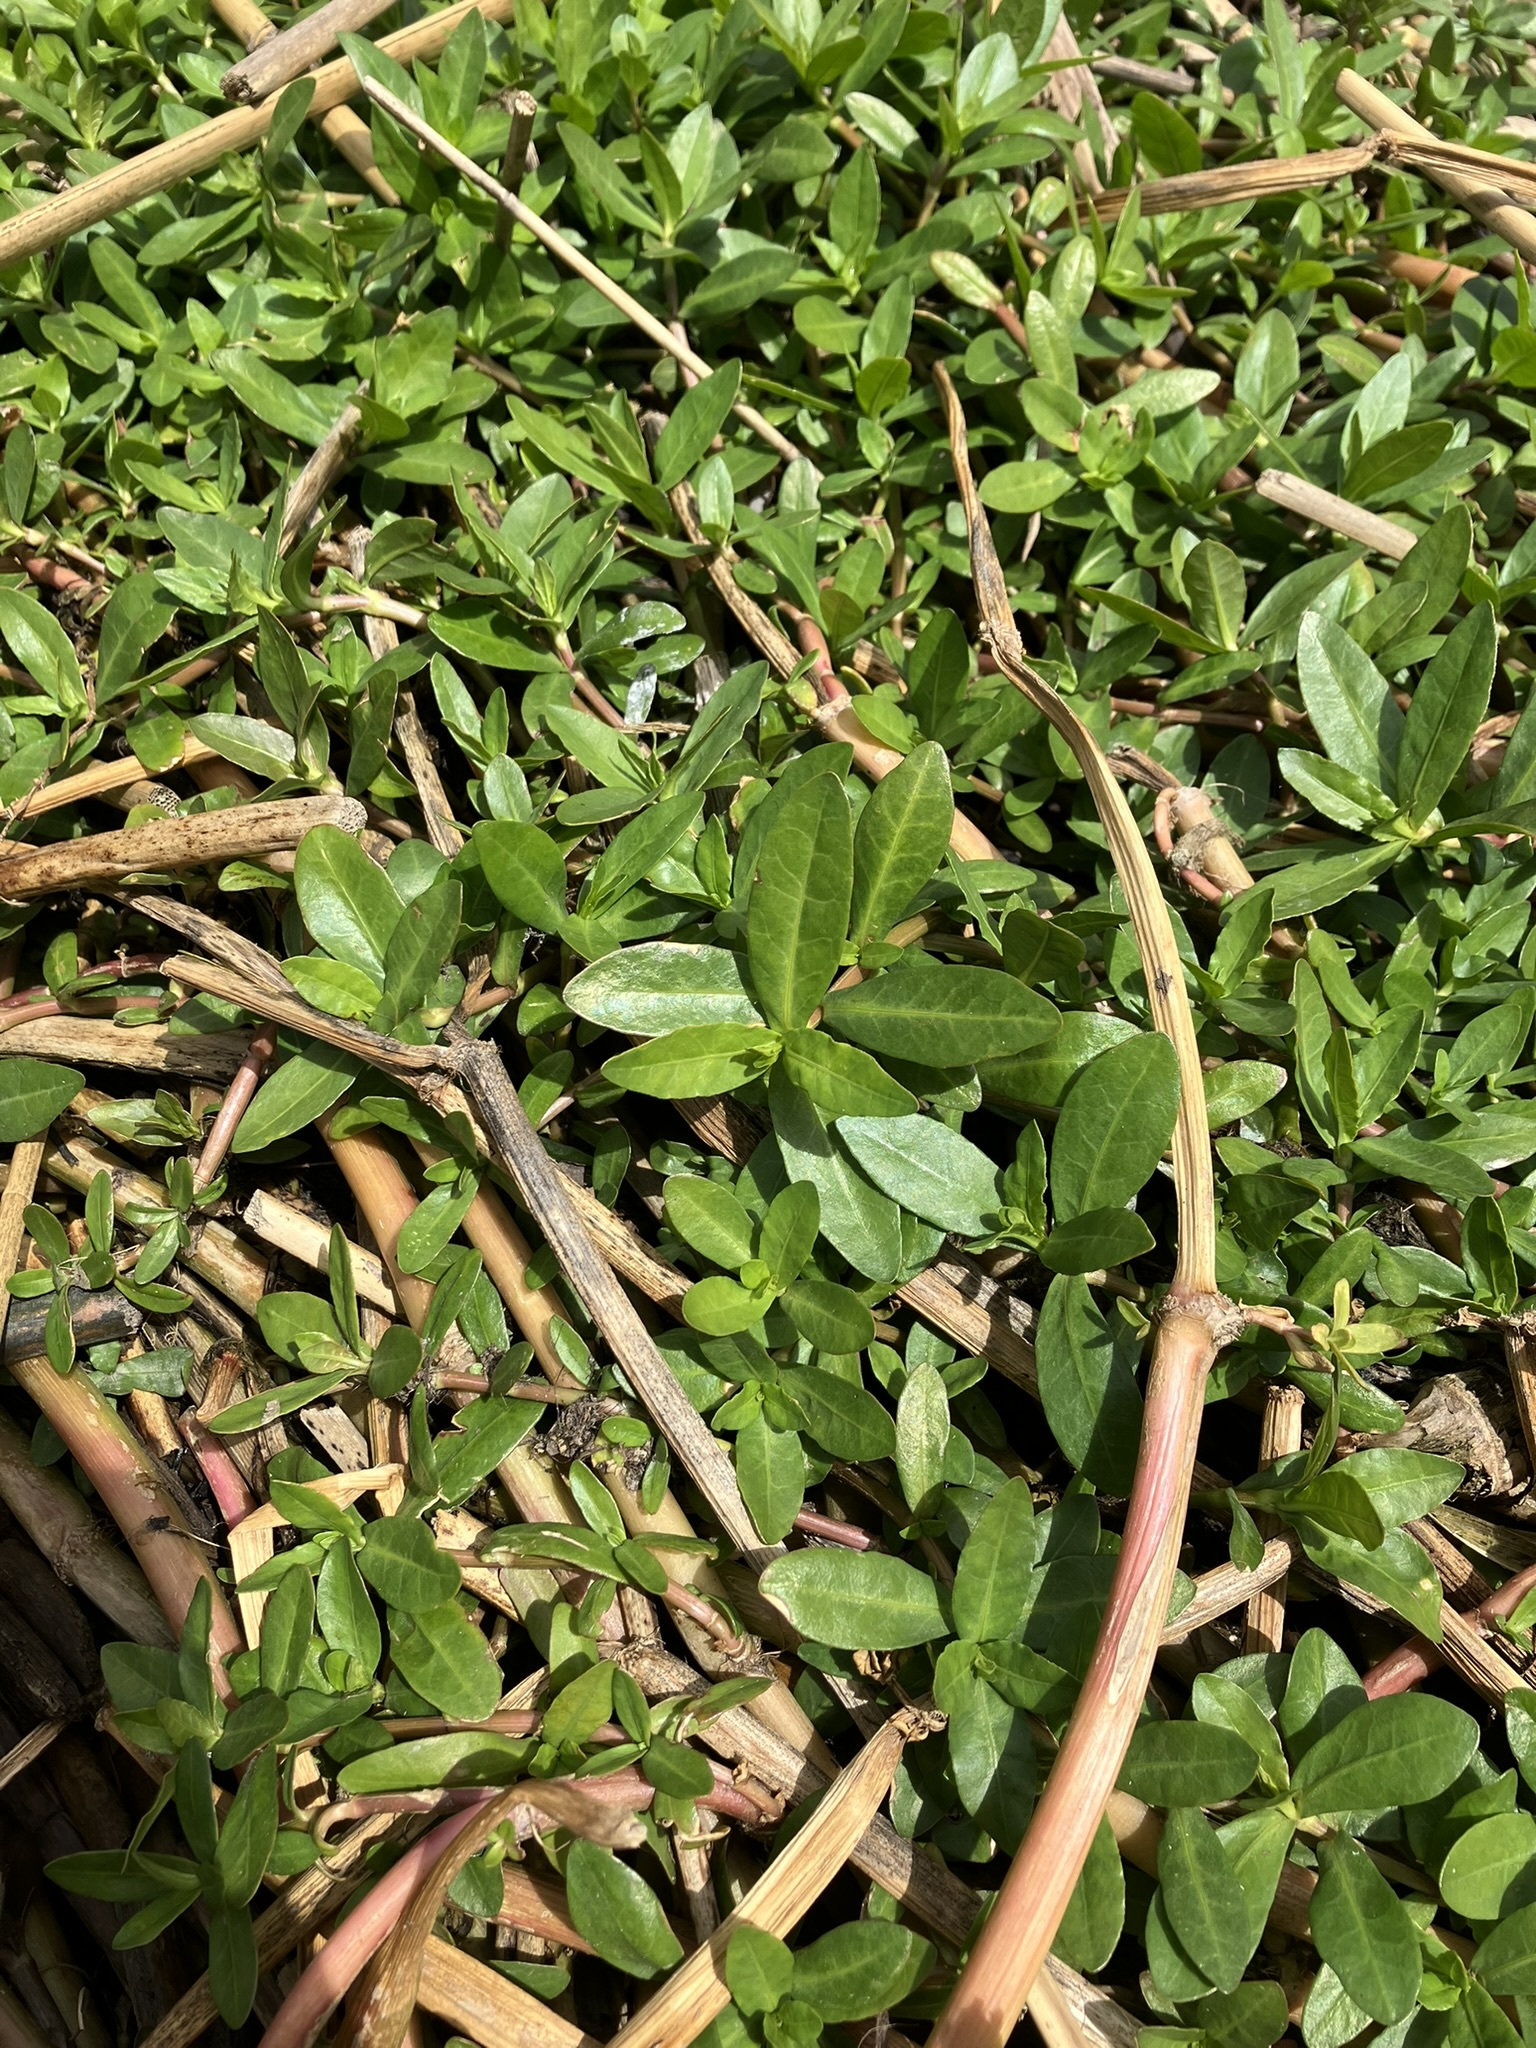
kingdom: Plantae
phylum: Tracheophyta
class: Magnoliopsida
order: Caryophyllales
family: Amaranthaceae
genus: Alternanthera
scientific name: Alternanthera philoxeroides
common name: Alligatorweed
